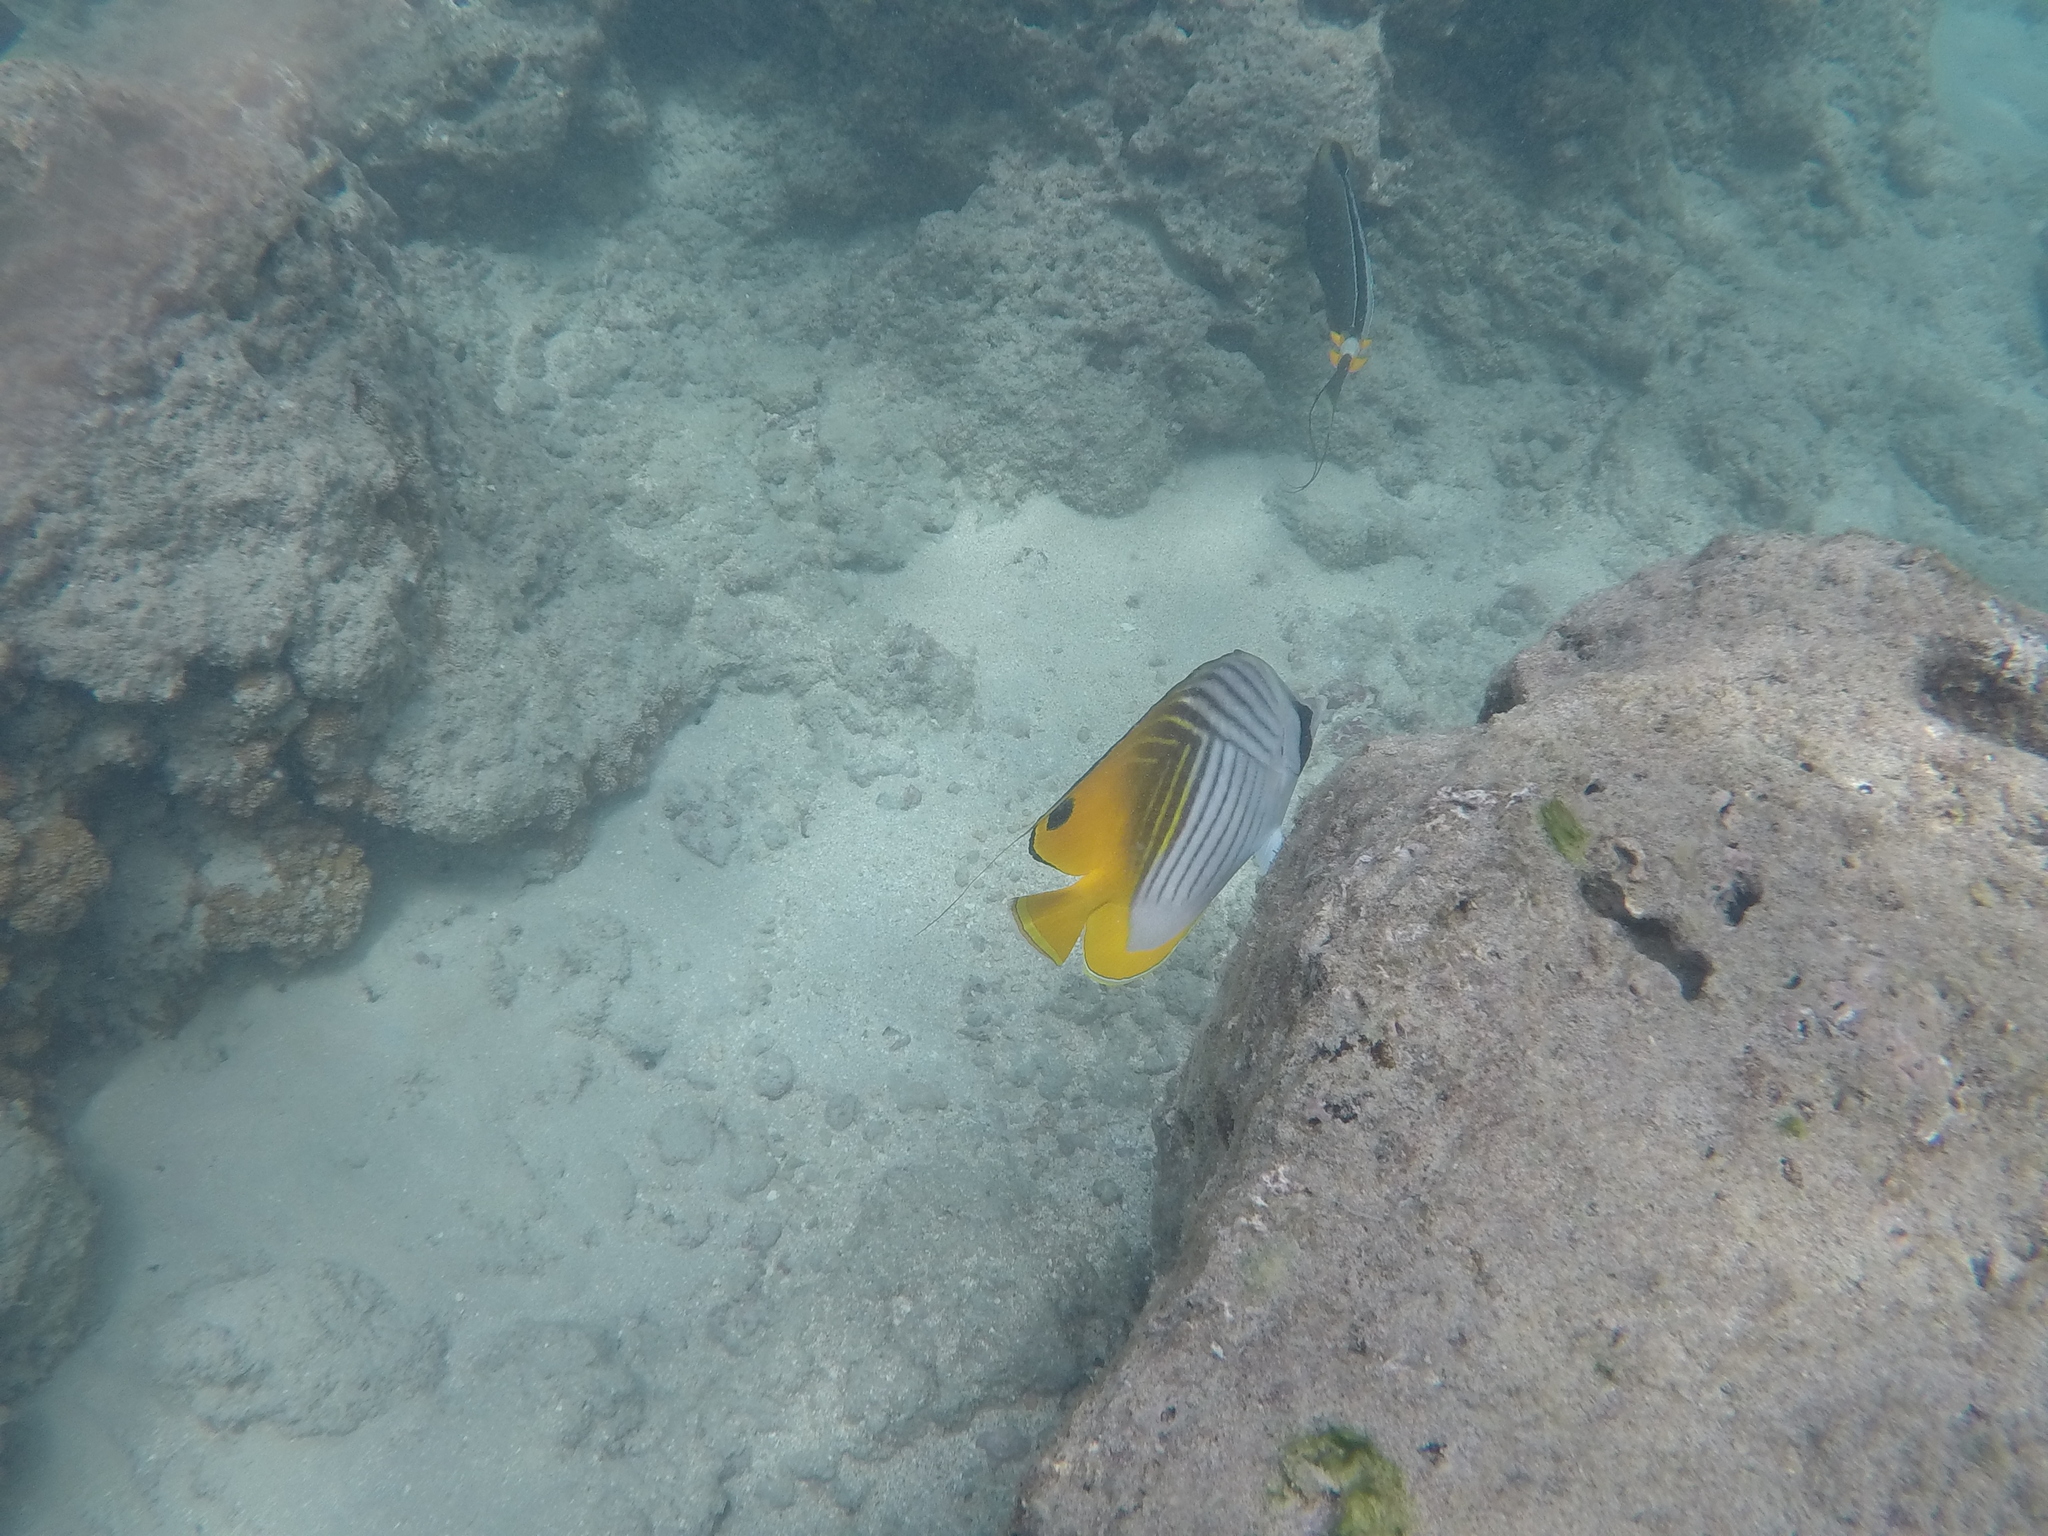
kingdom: Animalia
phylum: Chordata
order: Perciformes
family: Chaetodontidae
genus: Chaetodon
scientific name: Chaetodon auriga
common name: Threadfin butterflyfish
